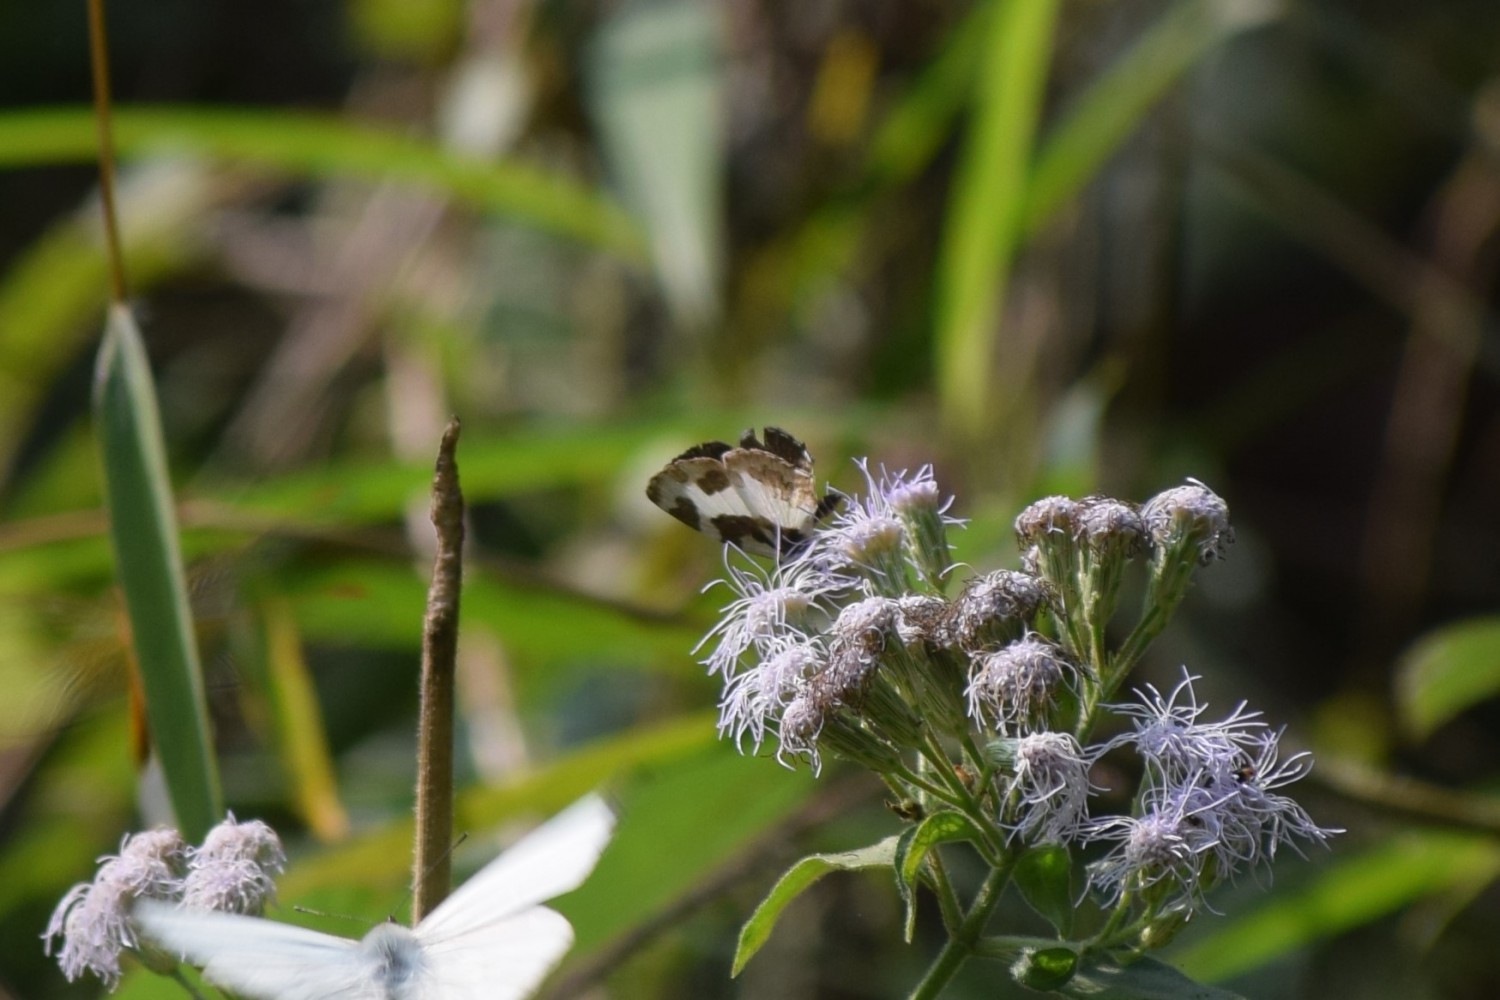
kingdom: Animalia
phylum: Arthropoda
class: Insecta
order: Lepidoptera
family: Lycaenidae
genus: Caleta
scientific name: Caleta elna
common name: Elbowed pierrot
